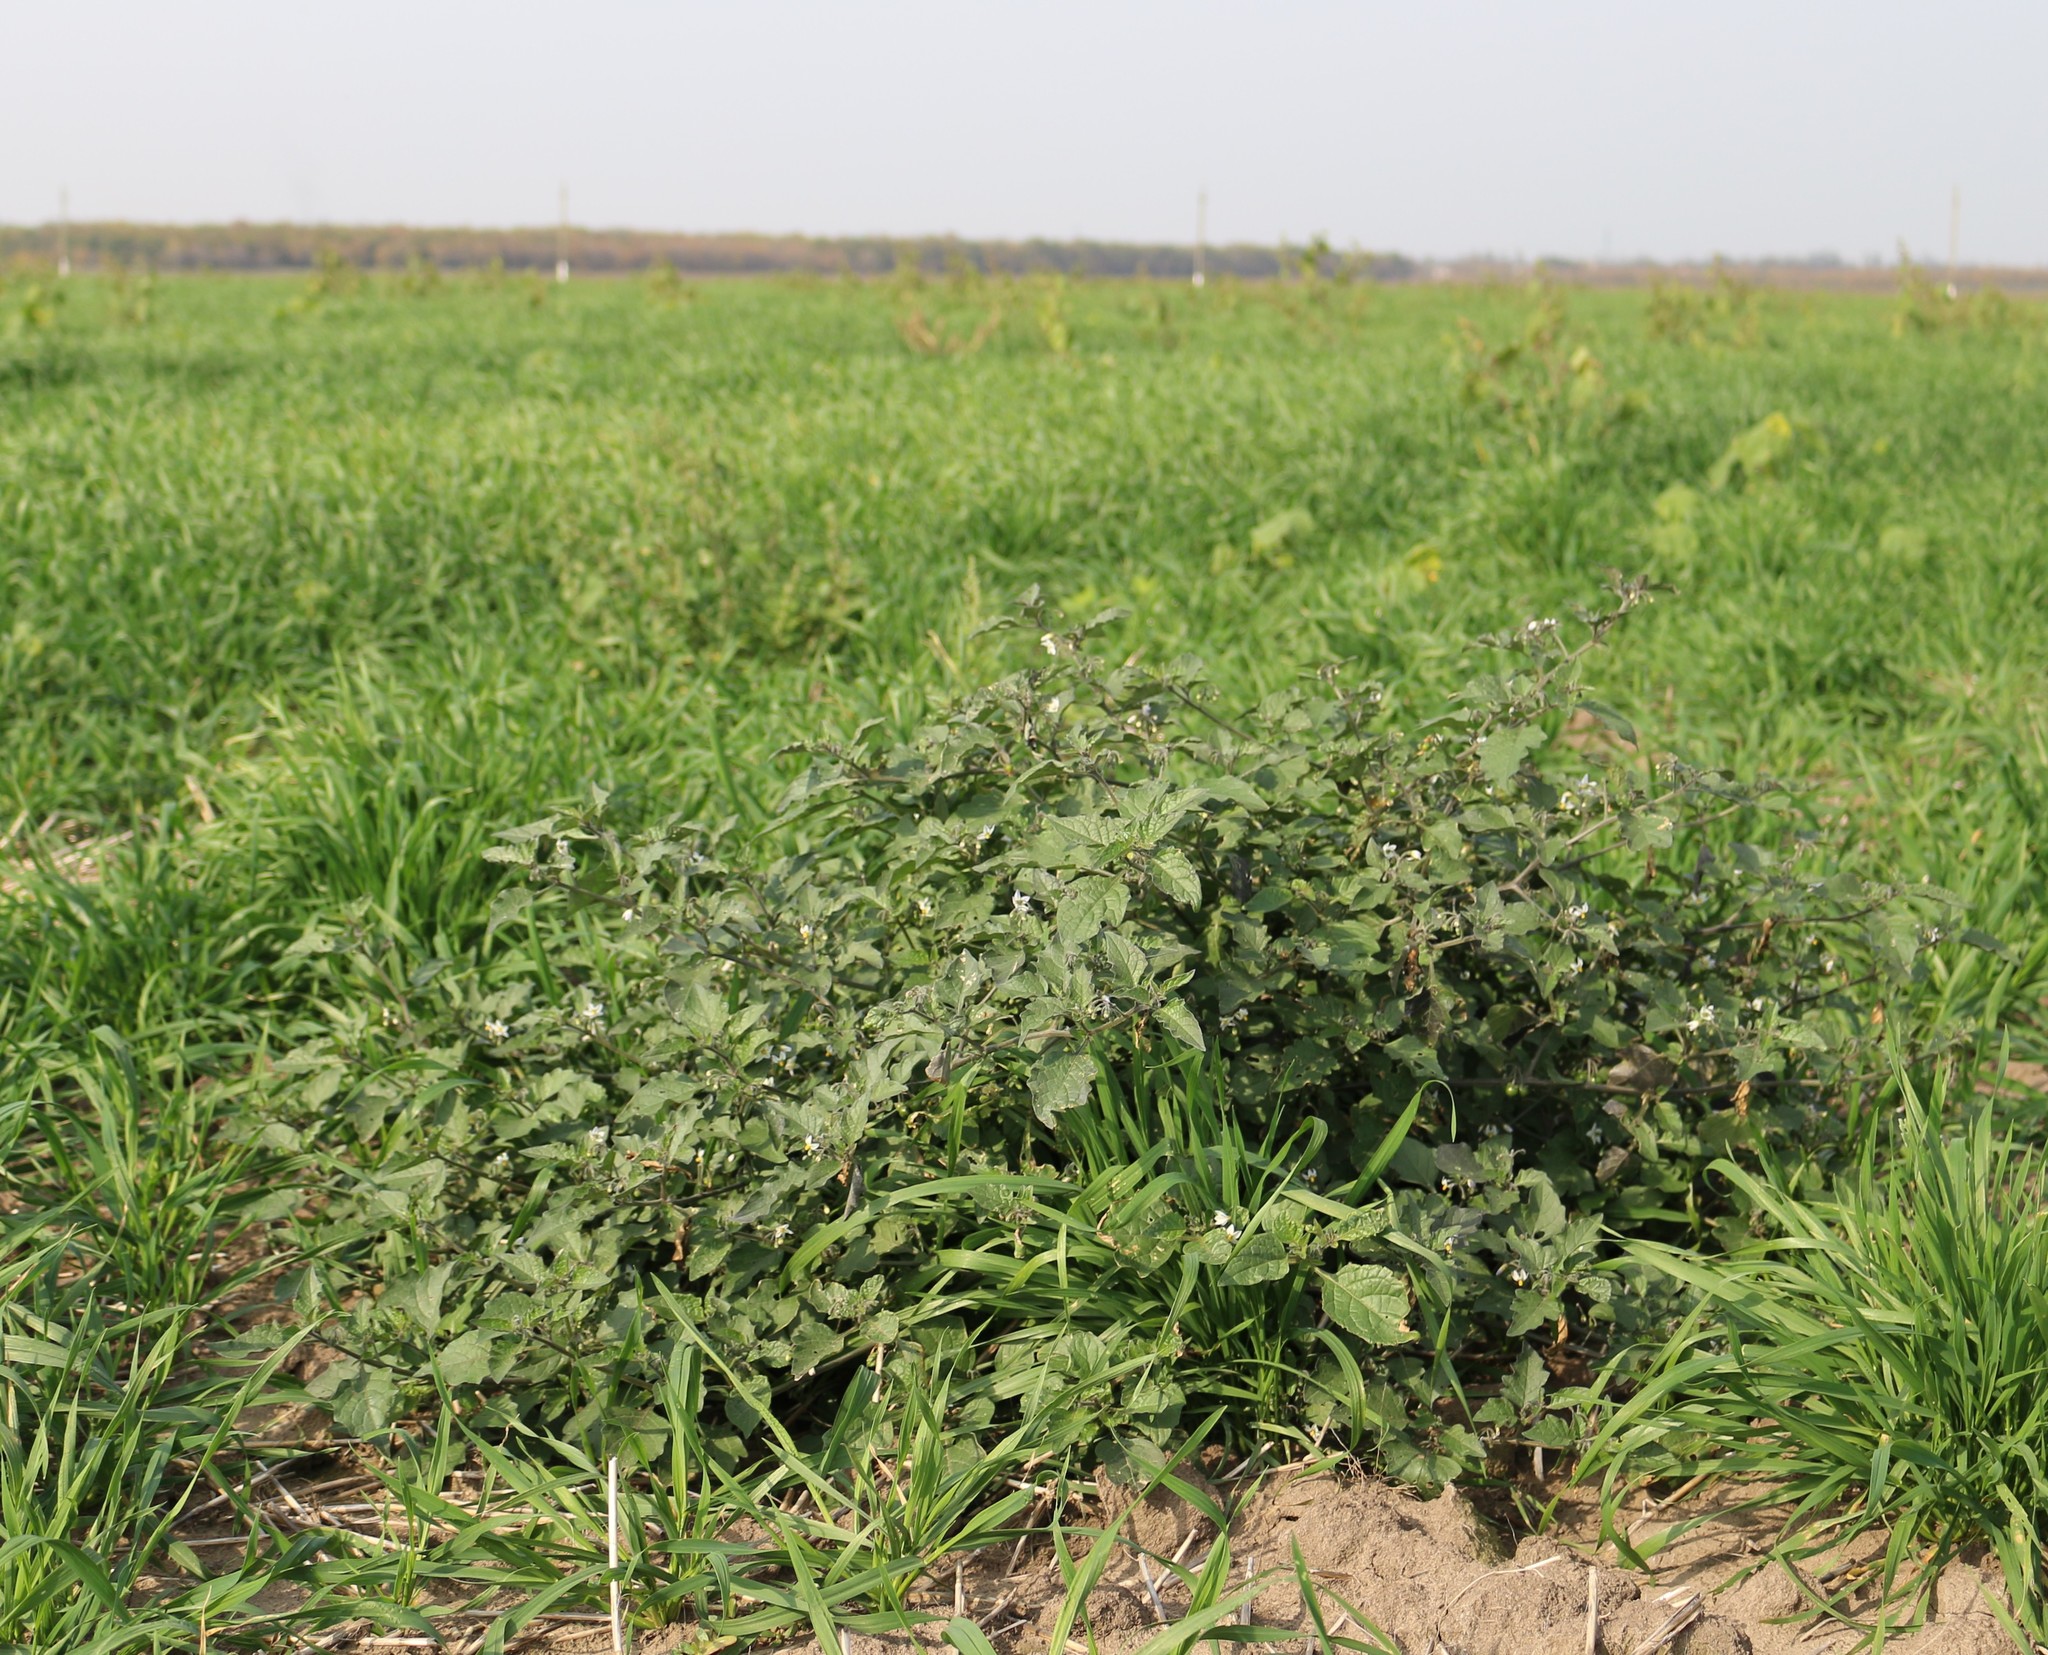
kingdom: Plantae
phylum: Tracheophyta
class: Magnoliopsida
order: Solanales
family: Solanaceae
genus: Solanum
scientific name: Solanum nigrum
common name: Black nightshade
